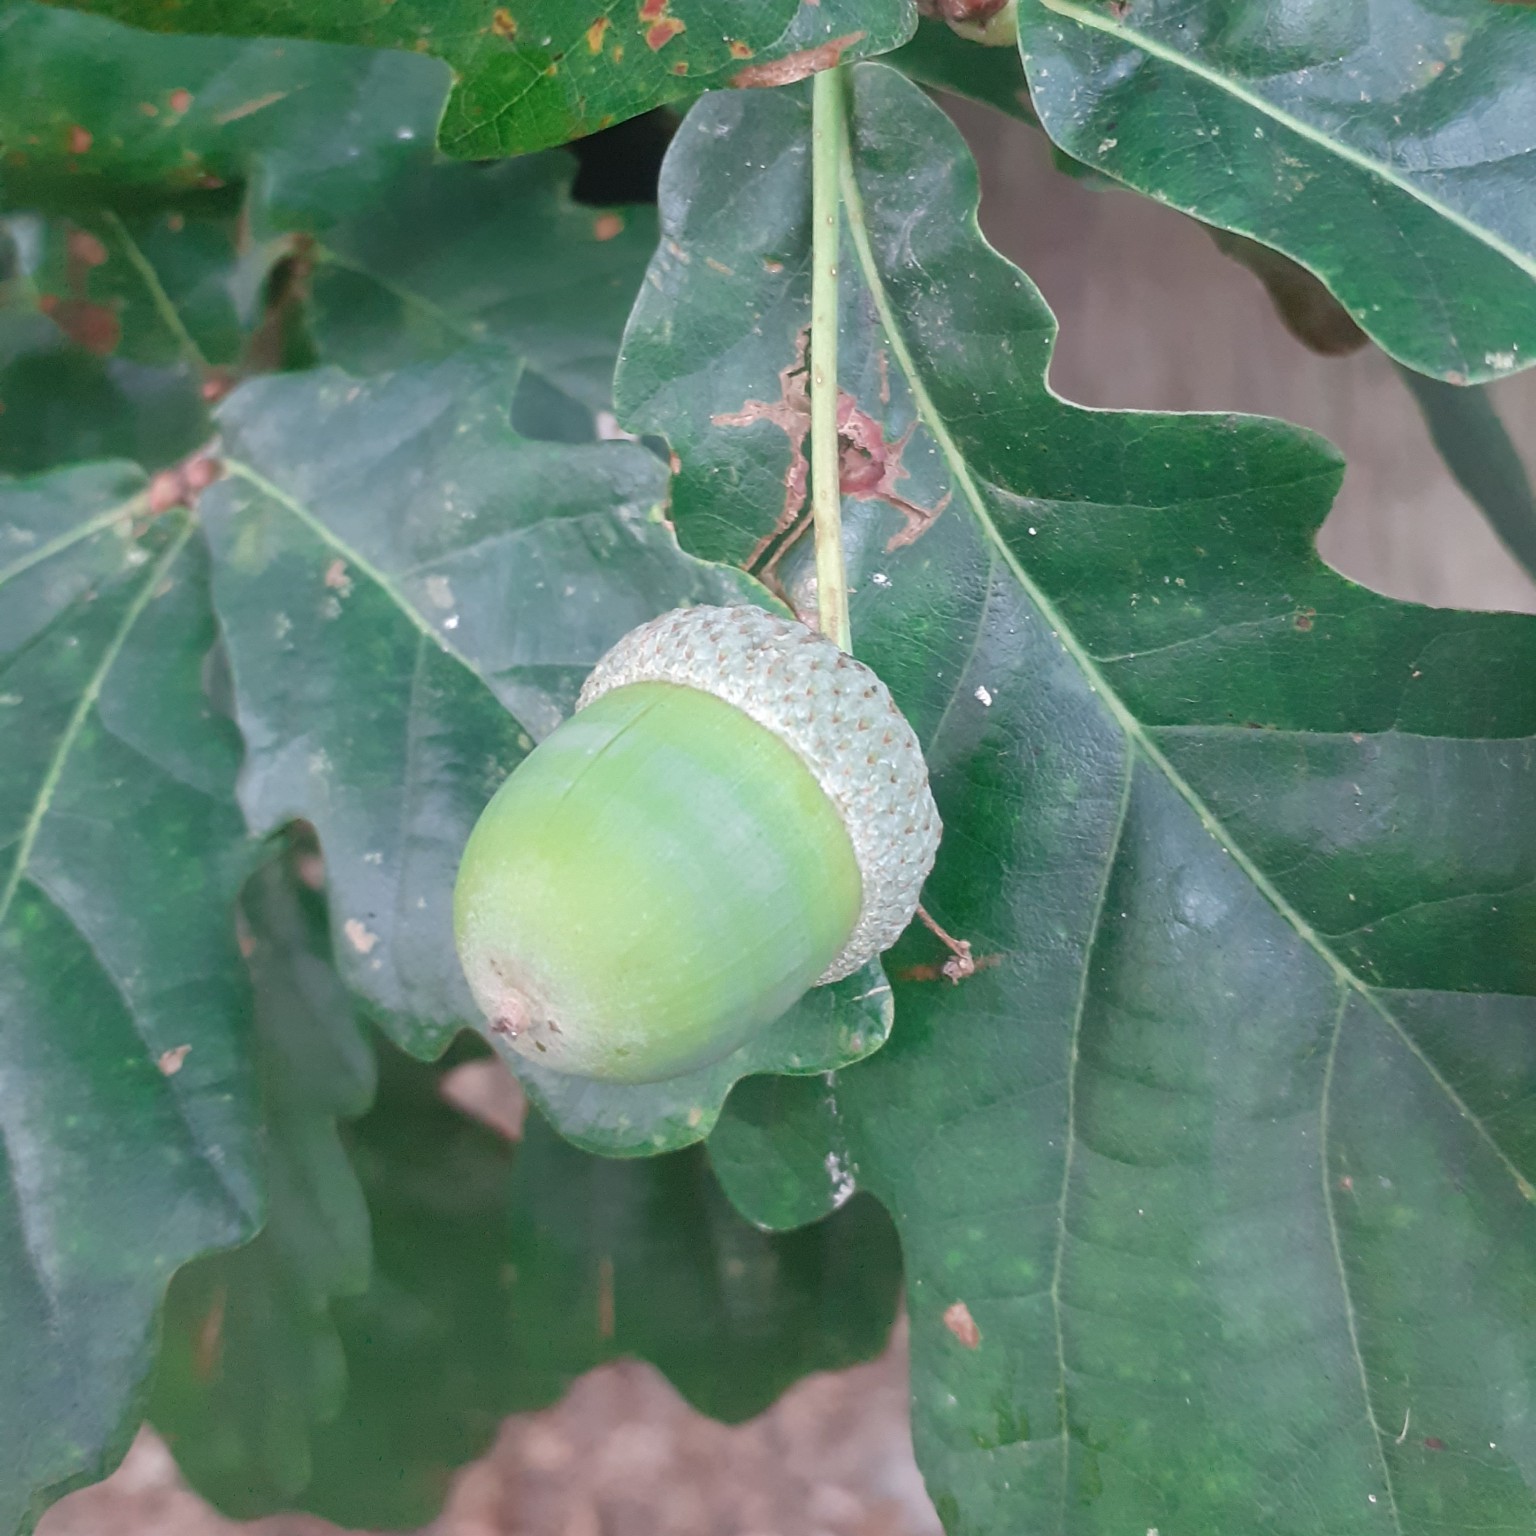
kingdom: Plantae
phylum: Tracheophyta
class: Magnoliopsida
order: Fagales
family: Fagaceae
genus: Quercus
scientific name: Quercus robur
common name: Pedunculate oak
